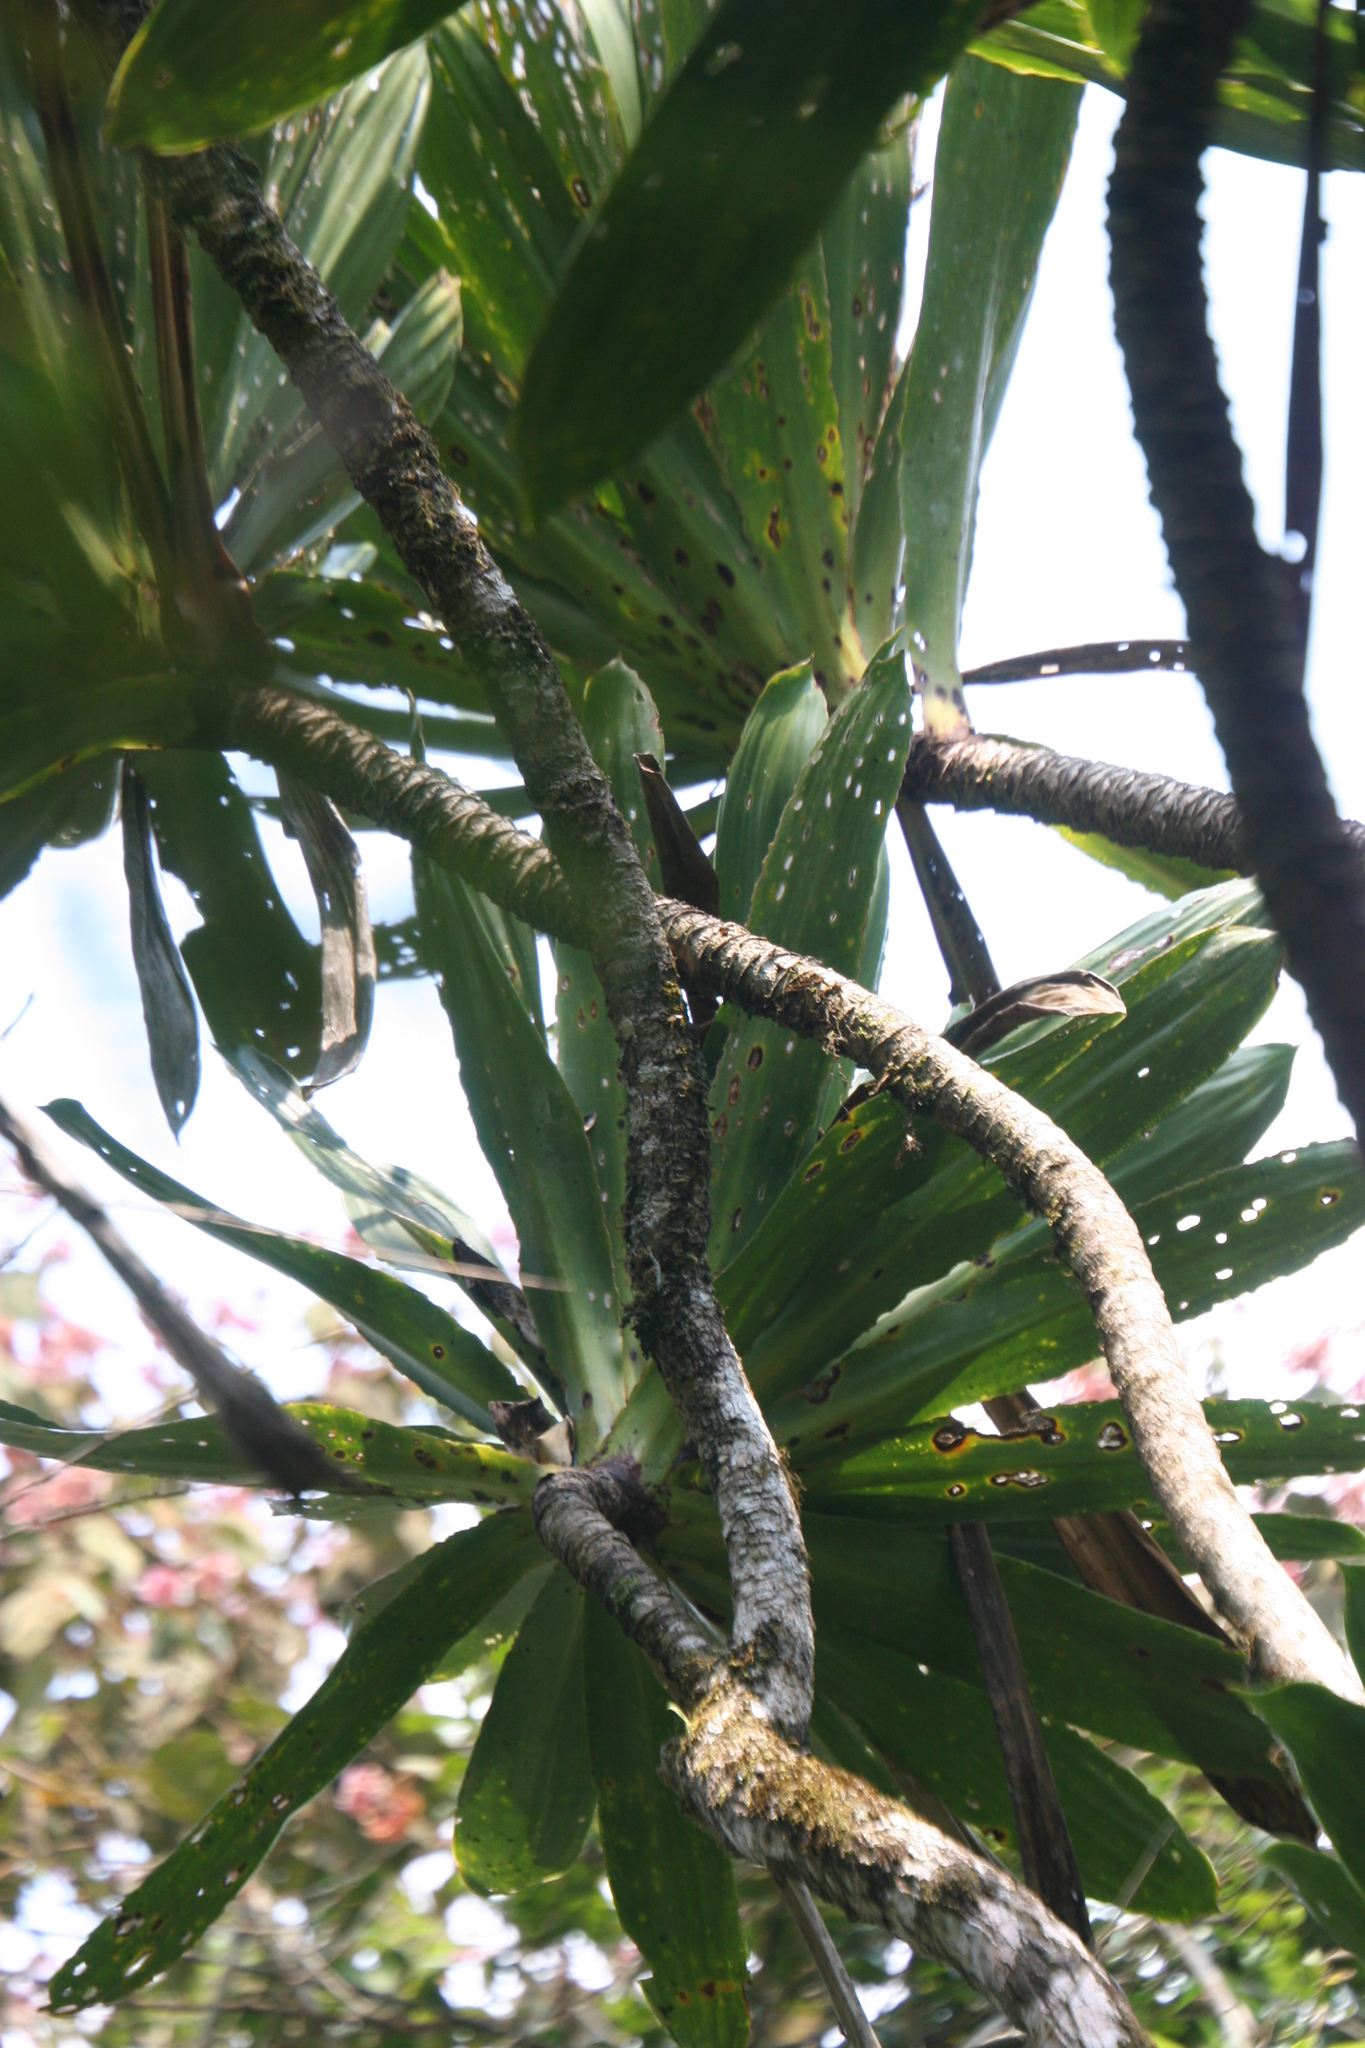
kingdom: Plantae
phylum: Tracheophyta
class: Liliopsida
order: Asparagales
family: Asparagaceae
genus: Dracaena
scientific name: Dracaena xiphophylla
